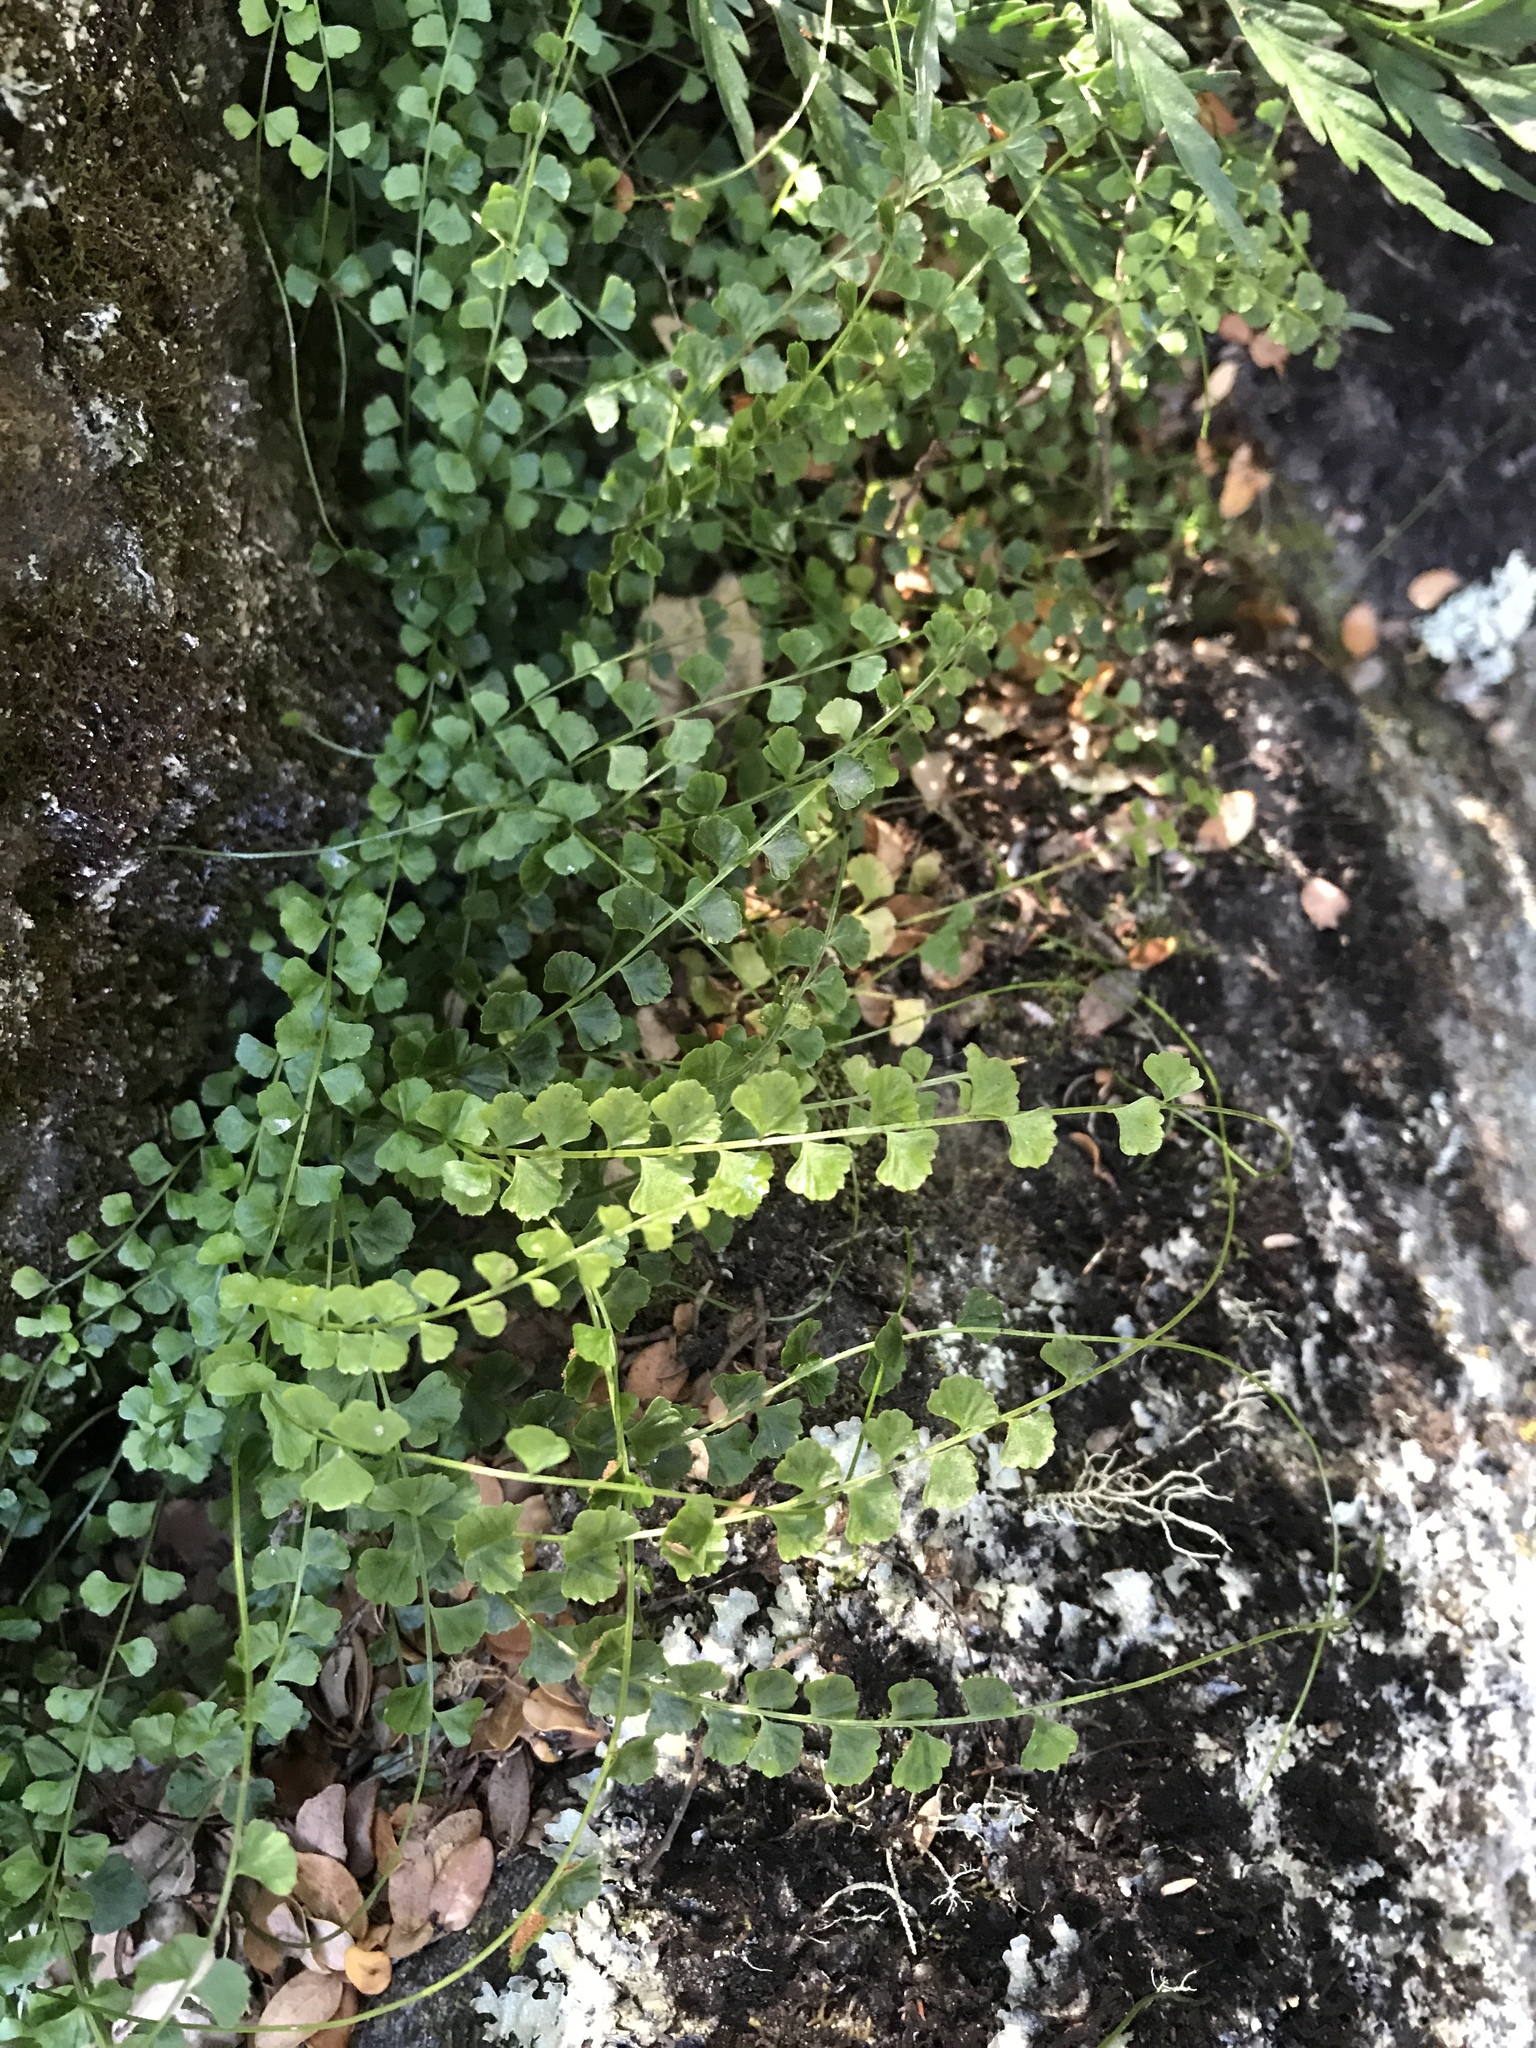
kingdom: Plantae
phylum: Tracheophyta
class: Polypodiopsida
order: Polypodiales
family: Aspleniaceae
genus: Asplenium
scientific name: Asplenium flabellifolium
